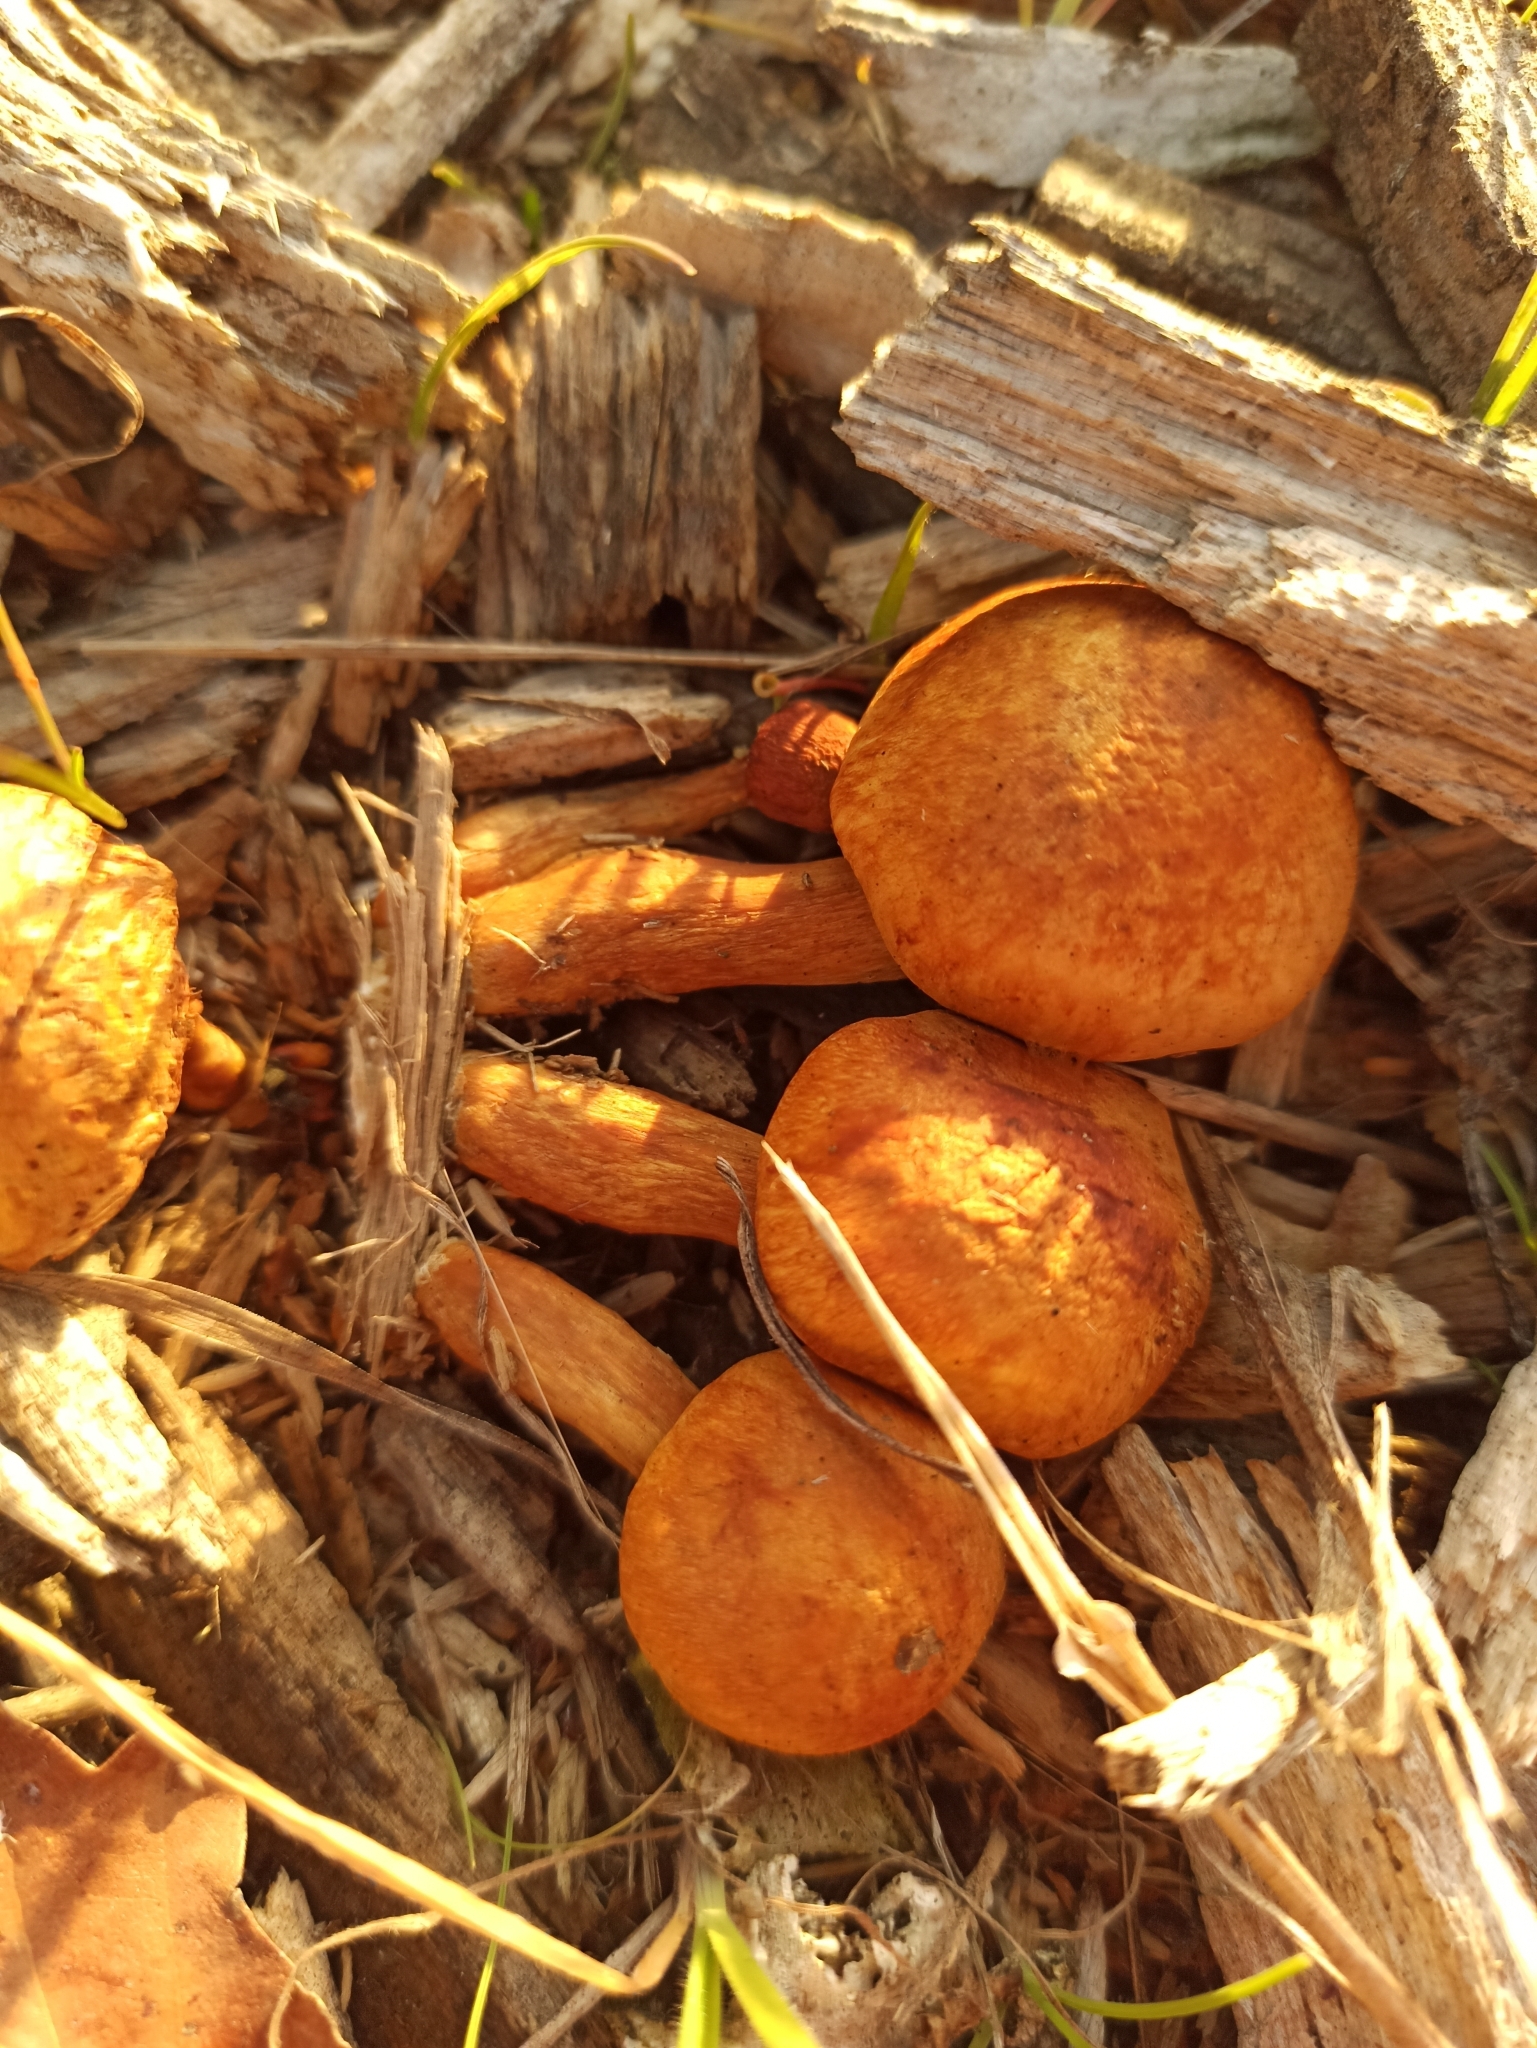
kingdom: Fungi
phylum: Basidiomycota
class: Agaricomycetes
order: Agaricales
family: Hymenogastraceae
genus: Gymnopilus
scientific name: Gymnopilus junonius
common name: Spectacular rustgill
